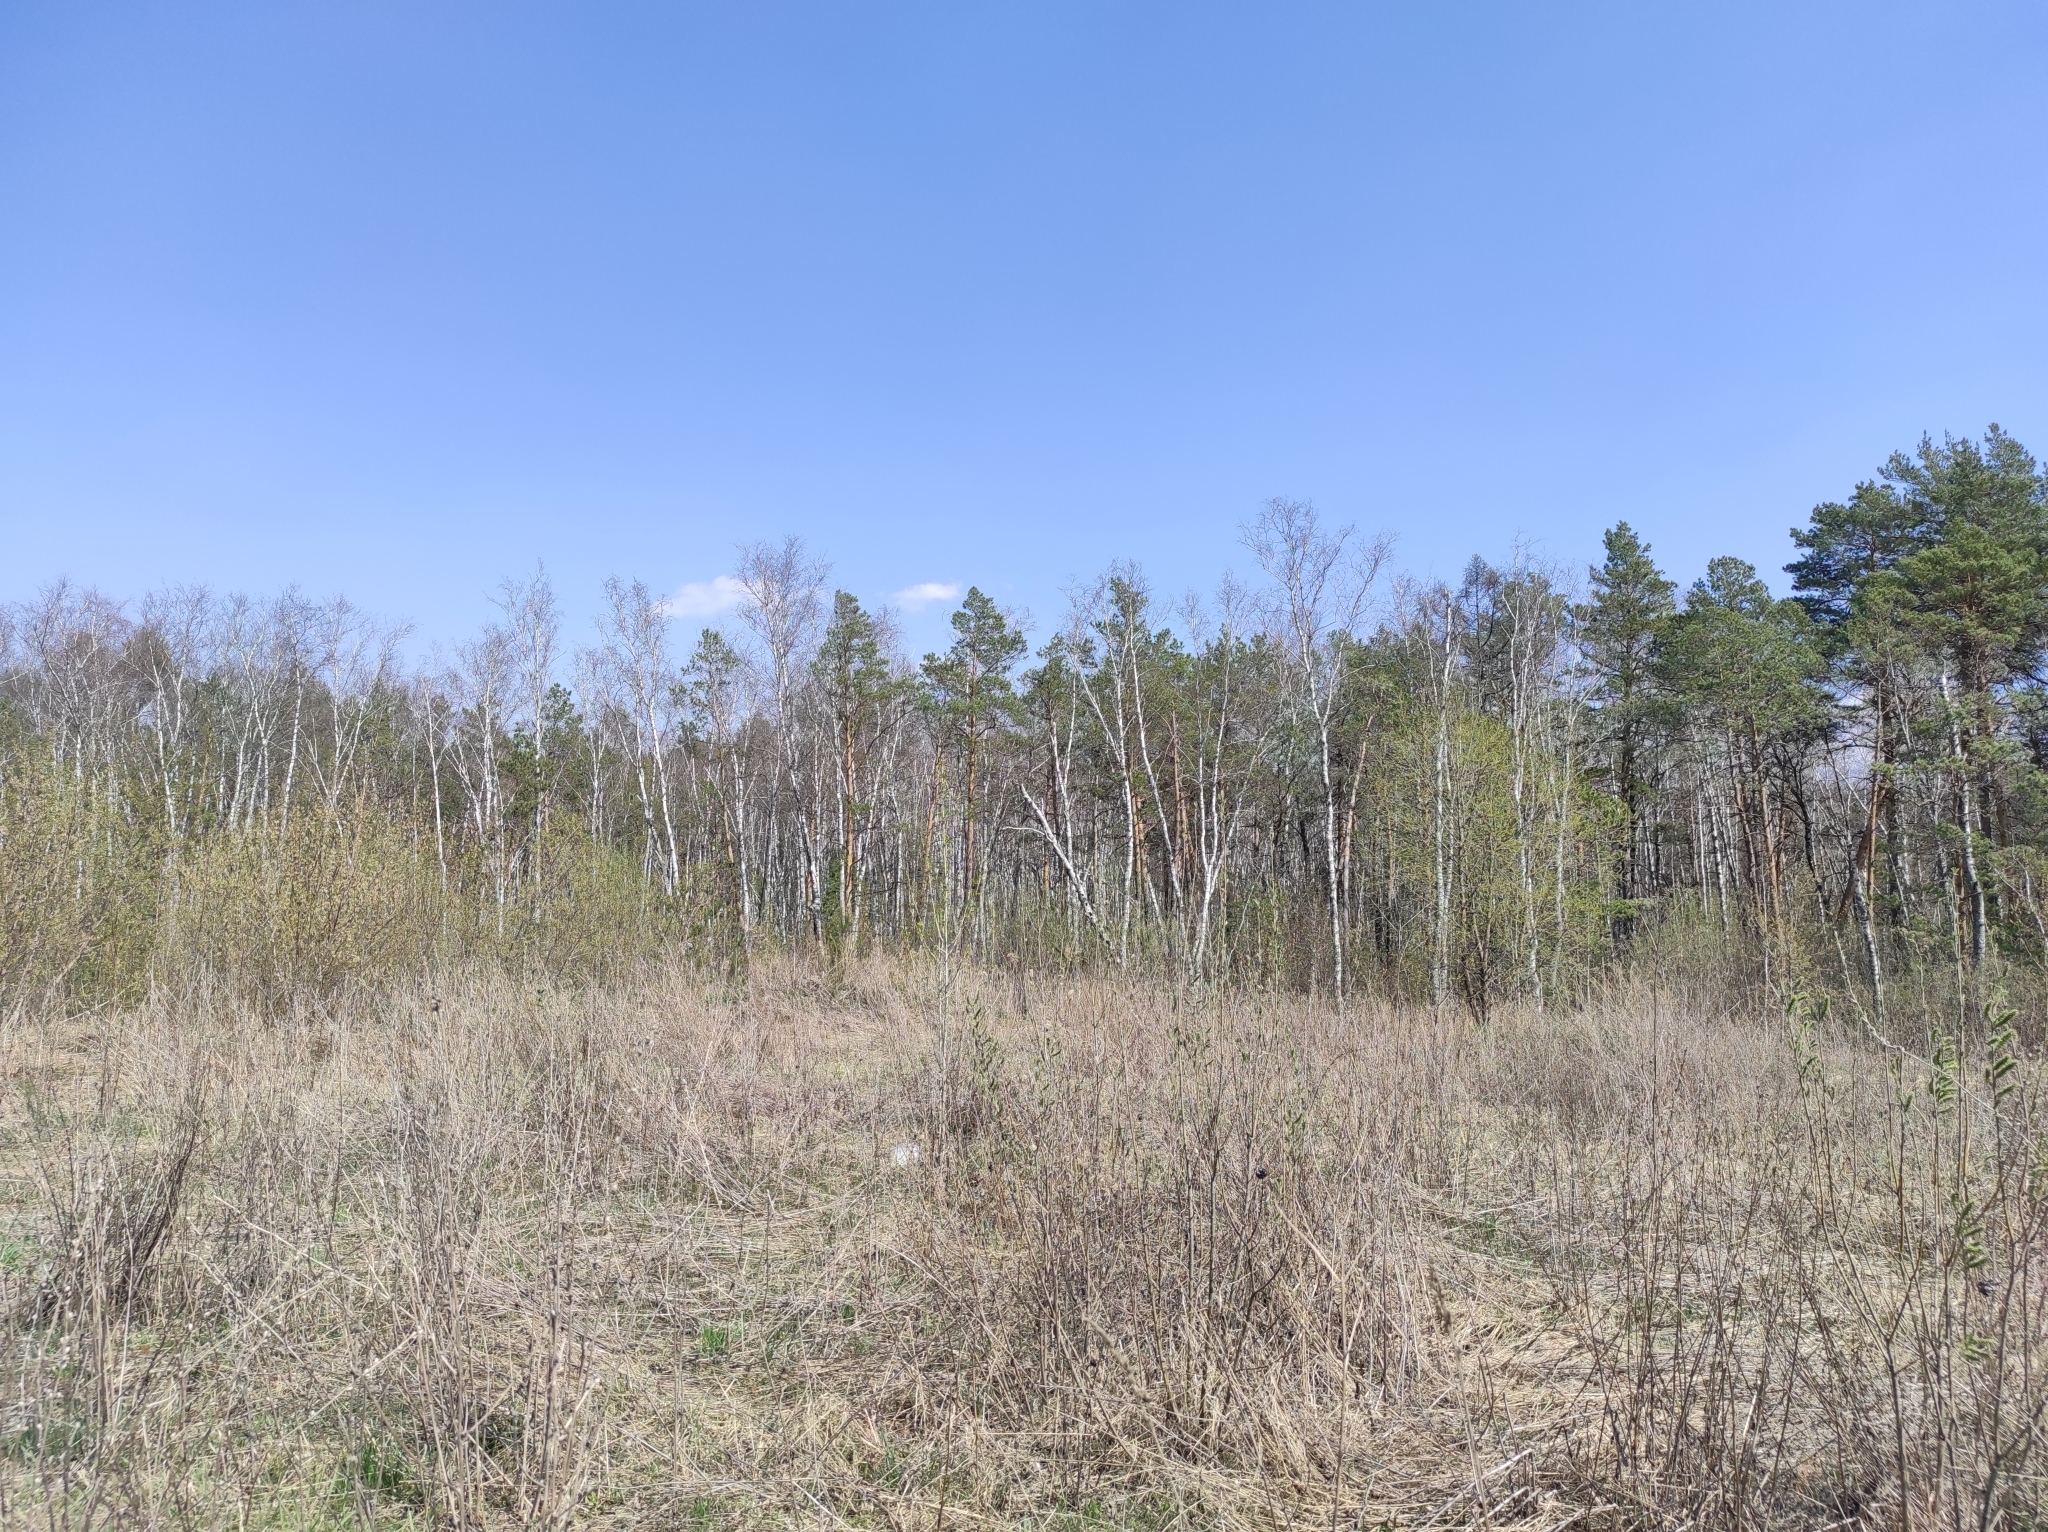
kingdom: Plantae
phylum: Tracheophyta
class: Pinopsida
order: Pinales
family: Pinaceae
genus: Pinus
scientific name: Pinus sylvestris
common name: Scots pine
